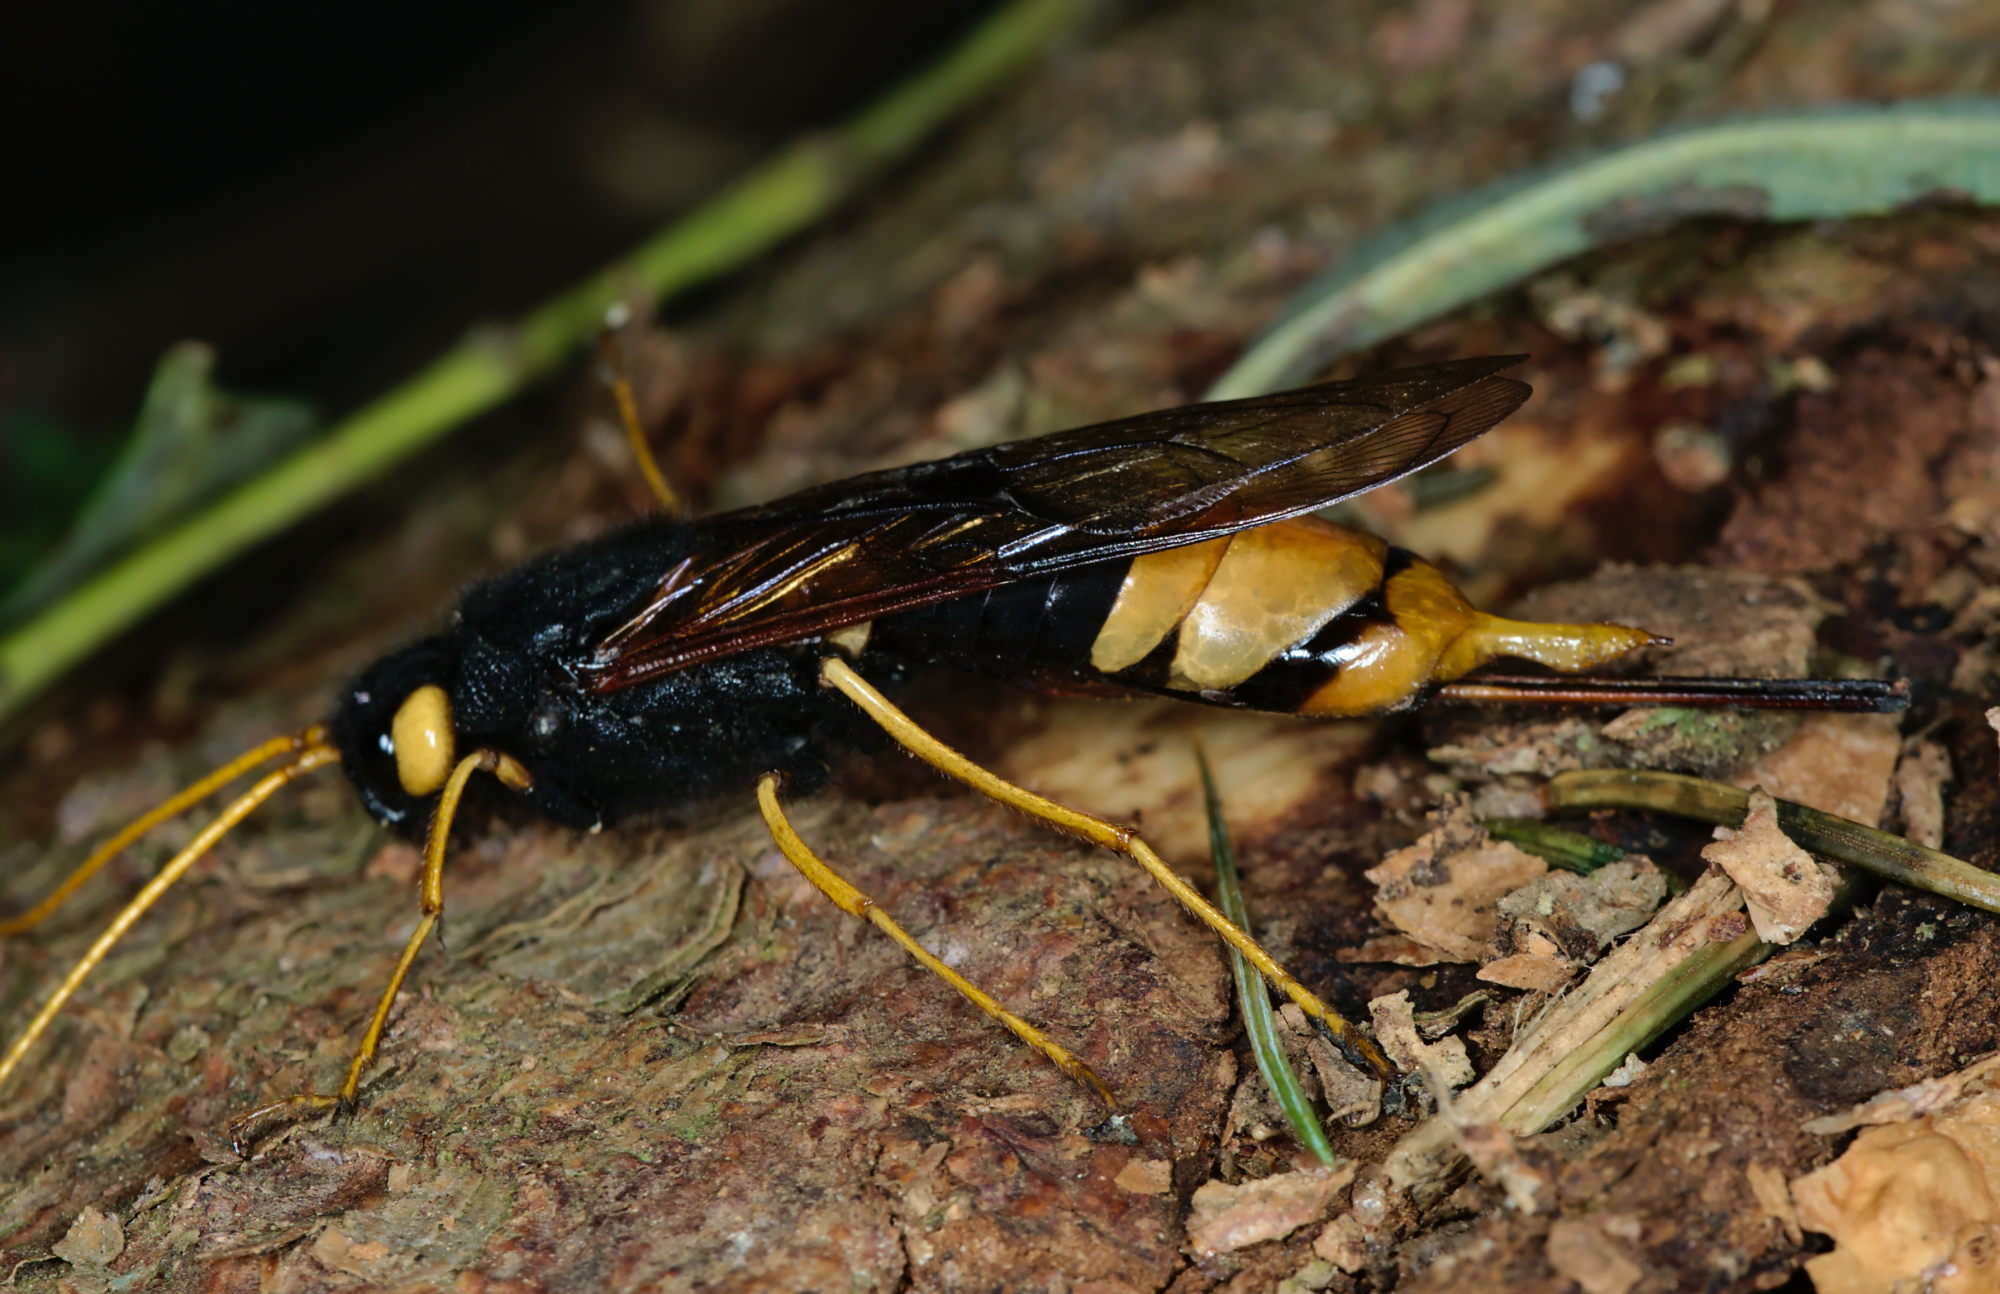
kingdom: Animalia
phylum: Arthropoda
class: Insecta
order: Hymenoptera
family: Siricidae
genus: Urocerus
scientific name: Urocerus gigas
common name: Giant woodwasp
